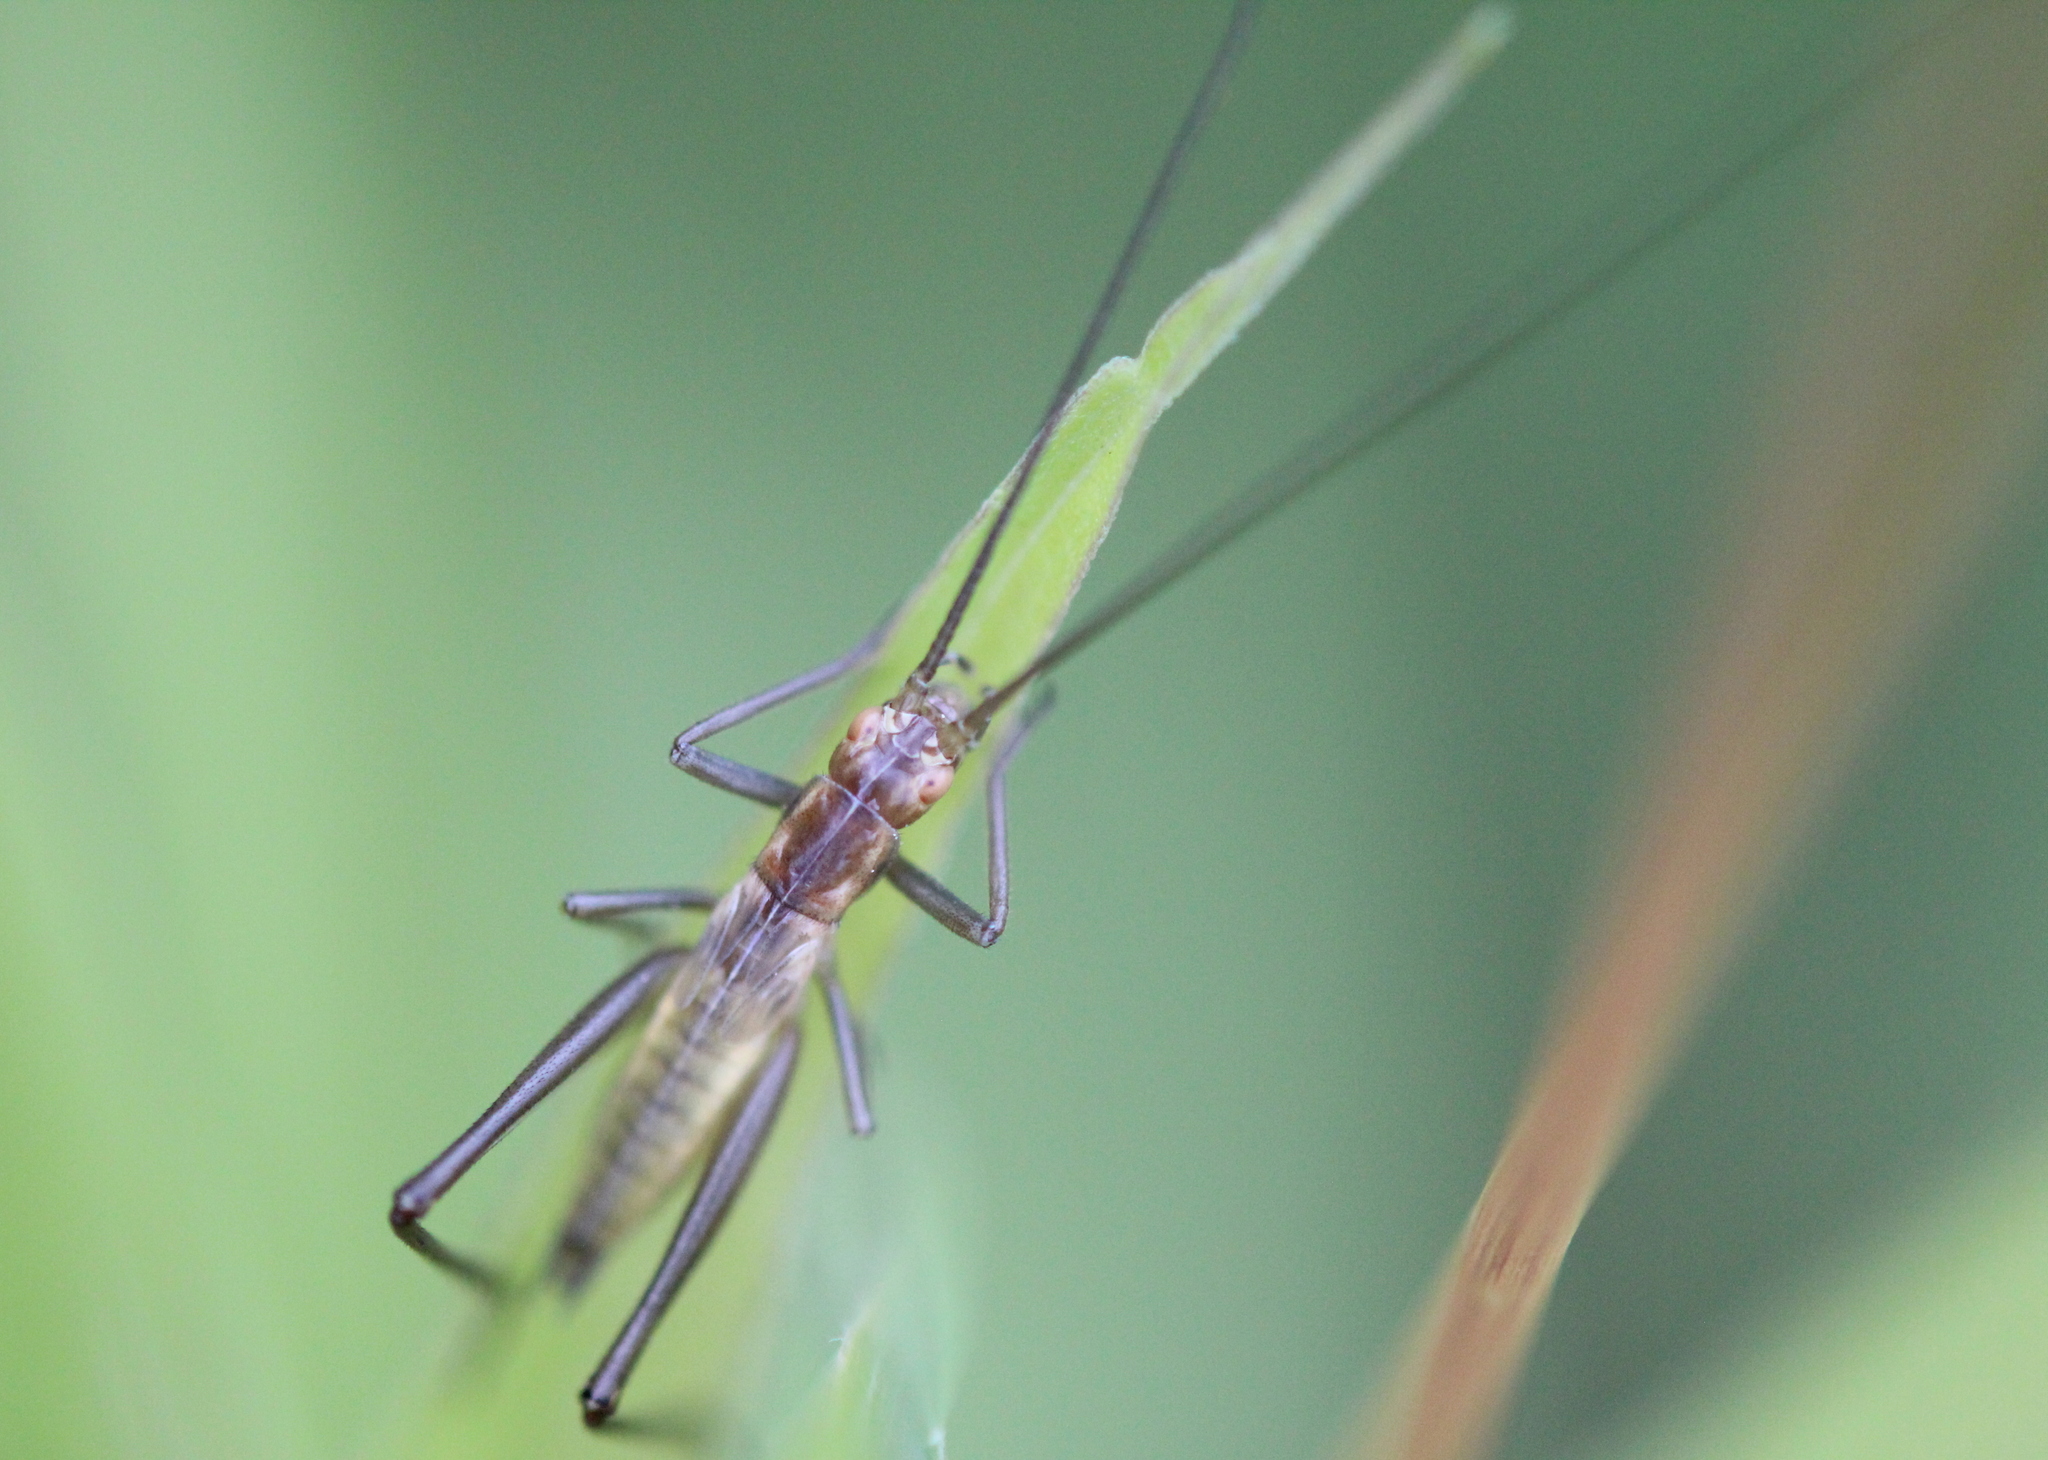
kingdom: Animalia
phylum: Arthropoda
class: Insecta
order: Orthoptera
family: Gryllidae
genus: Oecanthus
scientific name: Oecanthus pini
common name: Pine tree cricket
